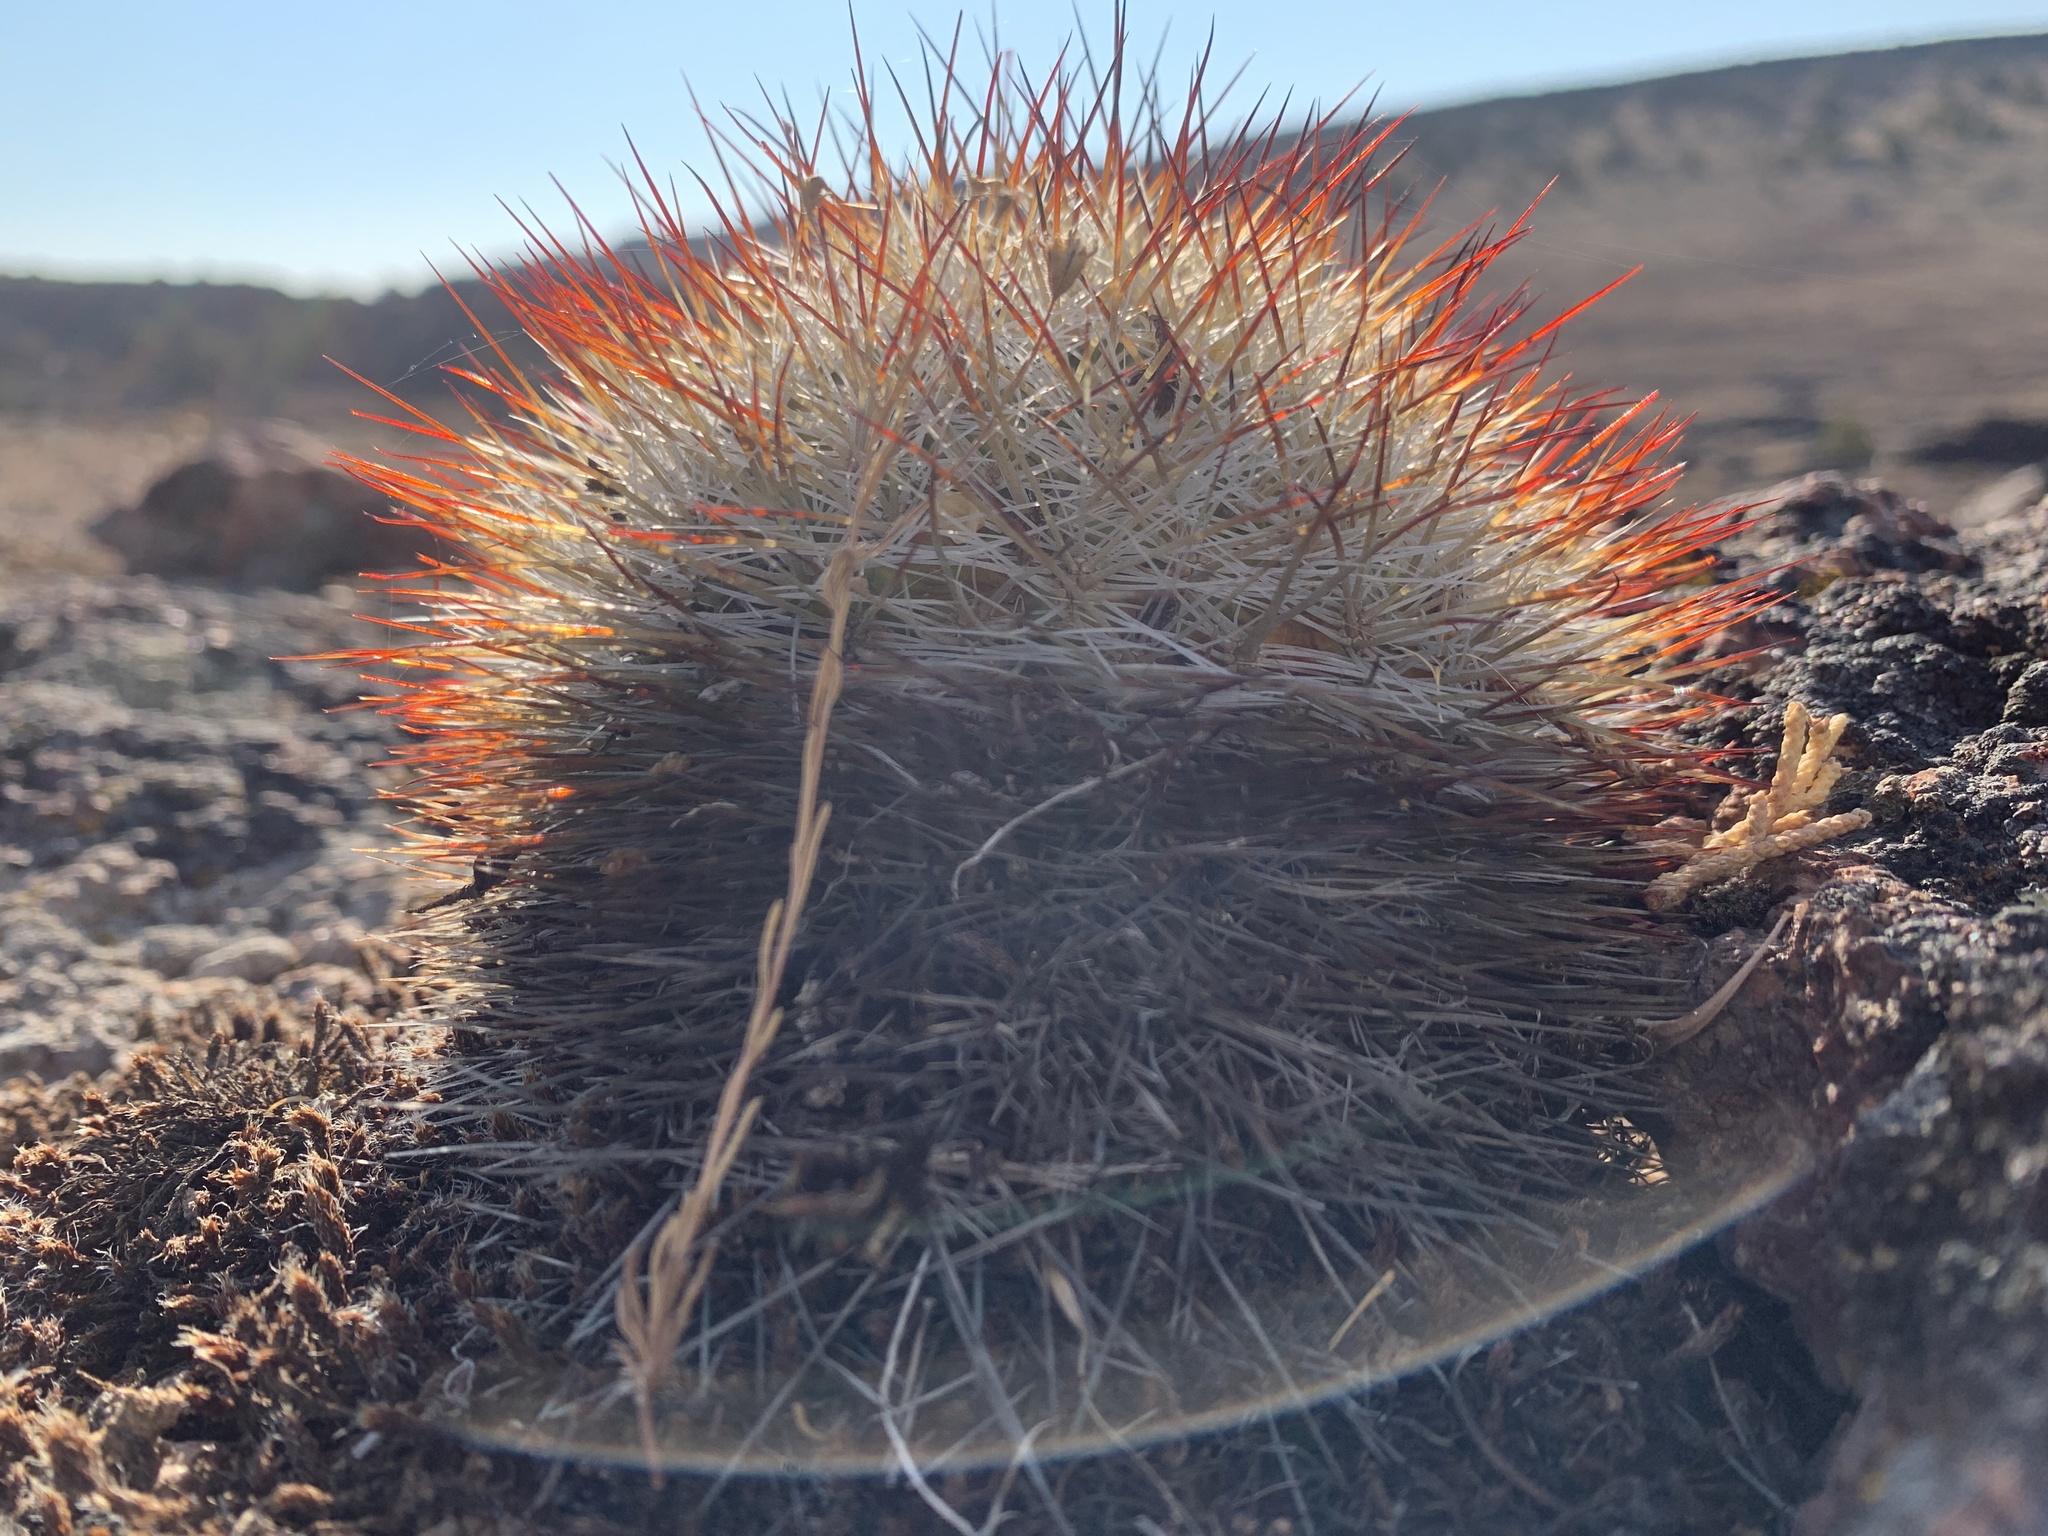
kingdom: Plantae
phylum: Tracheophyta
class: Magnoliopsida
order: Caryophyllales
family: Cactaceae
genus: Pediocactus
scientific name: Pediocactus simpsonii
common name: Simpson's hedgehog cactus
